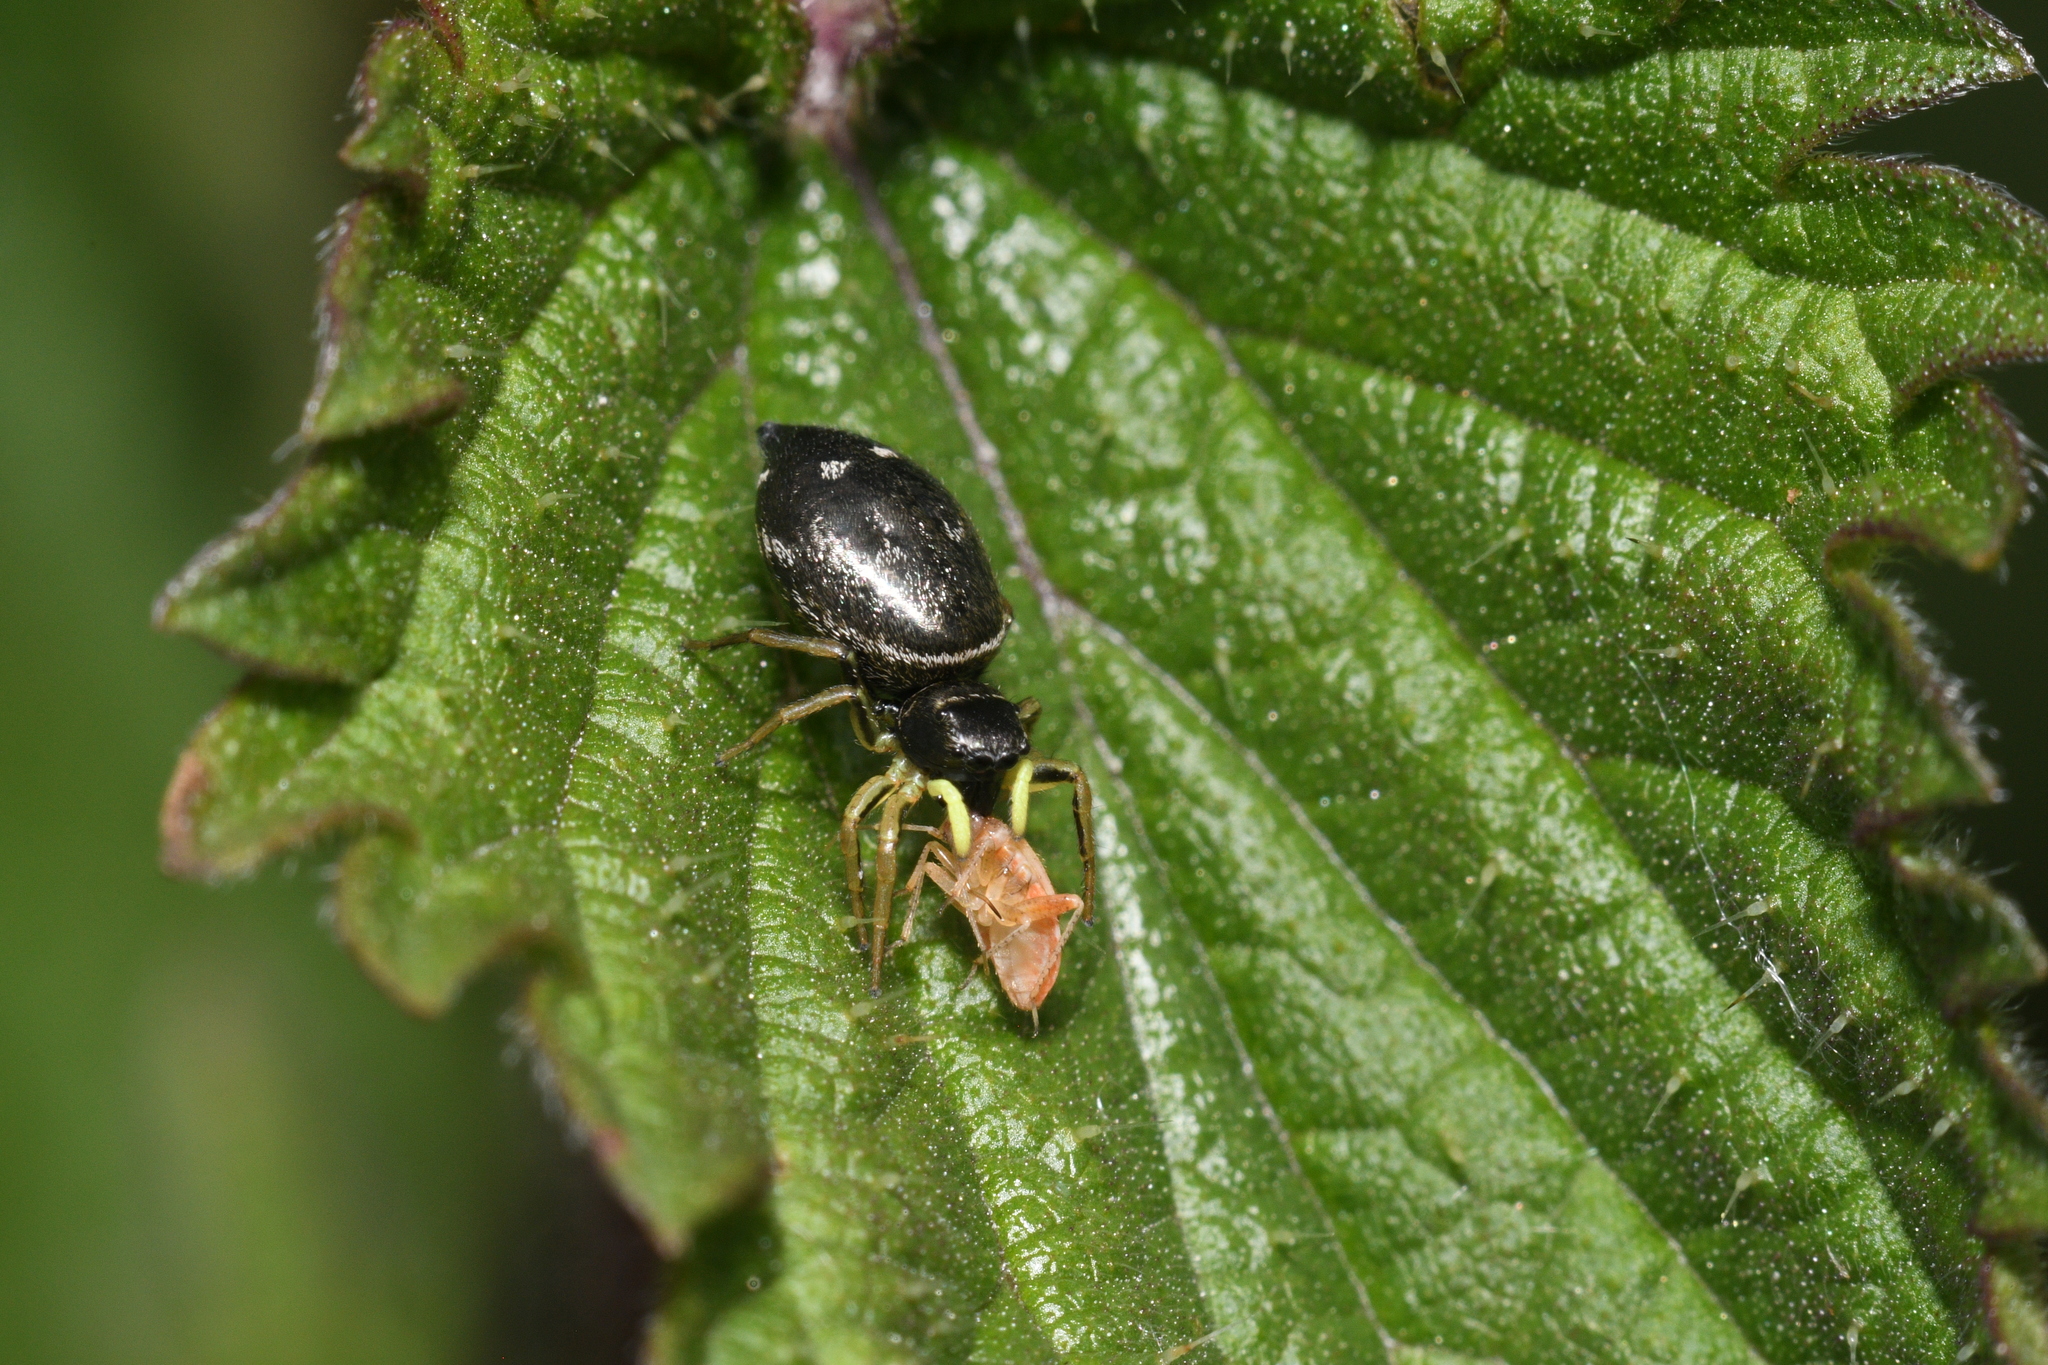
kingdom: Animalia
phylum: Arthropoda
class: Arachnida
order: Araneae
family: Salticidae
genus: Heliophanus
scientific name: Heliophanus cupreus
